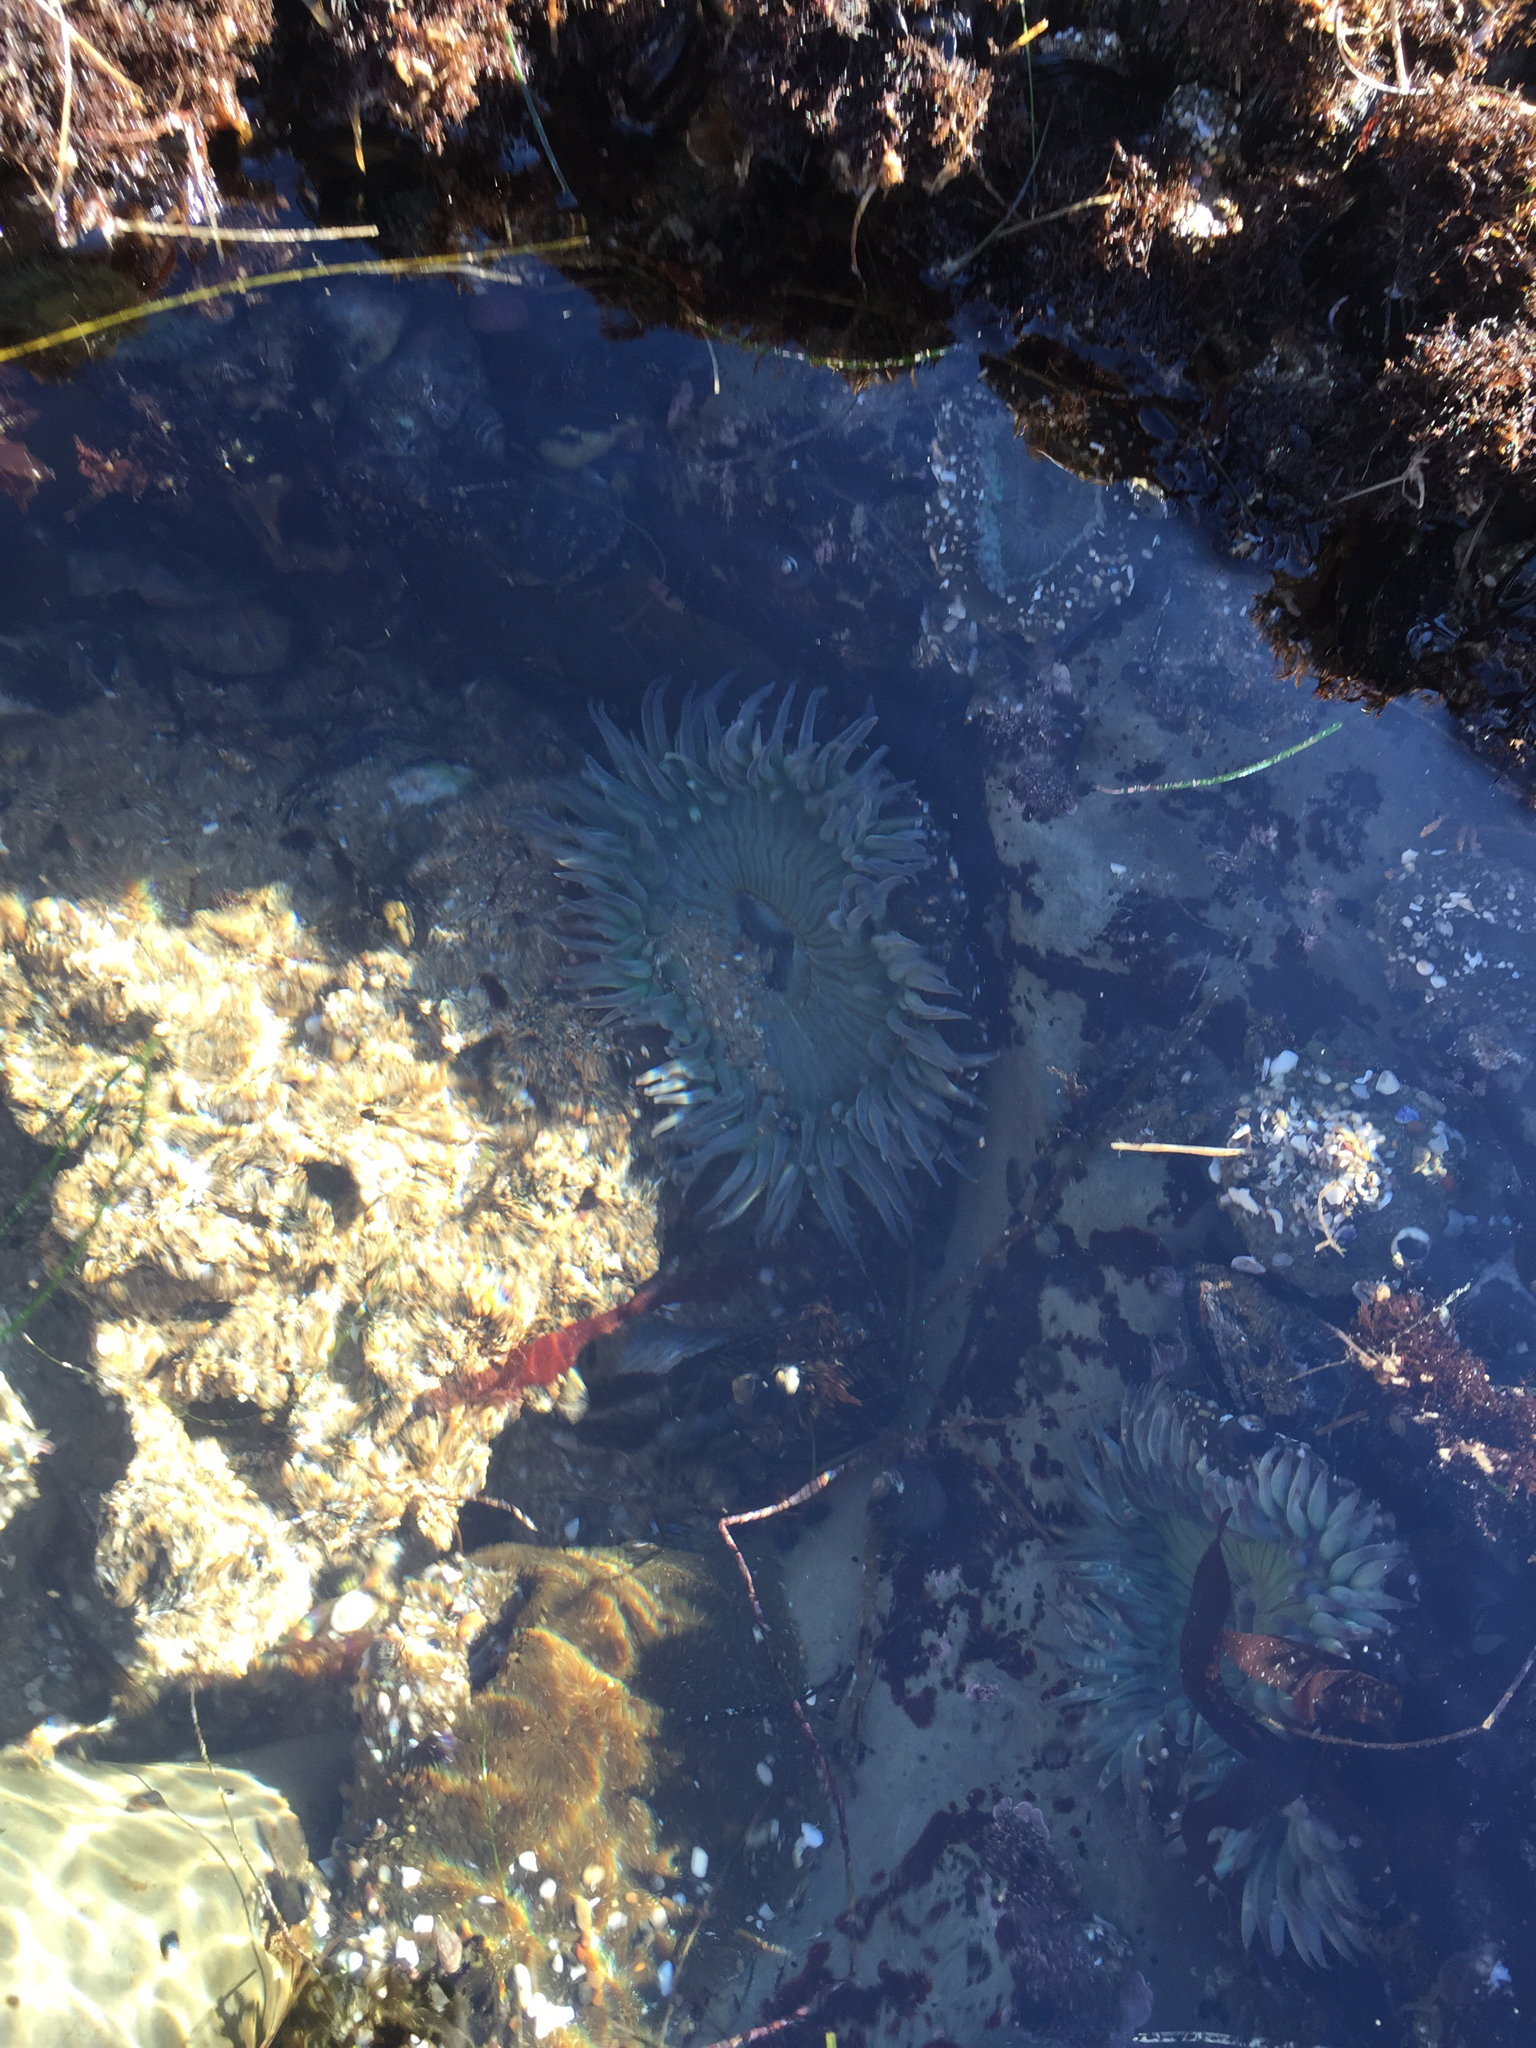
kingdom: Animalia
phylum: Cnidaria
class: Anthozoa
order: Actiniaria
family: Actiniidae
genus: Anthopleura
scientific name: Anthopleura sola
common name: Sun anemone
